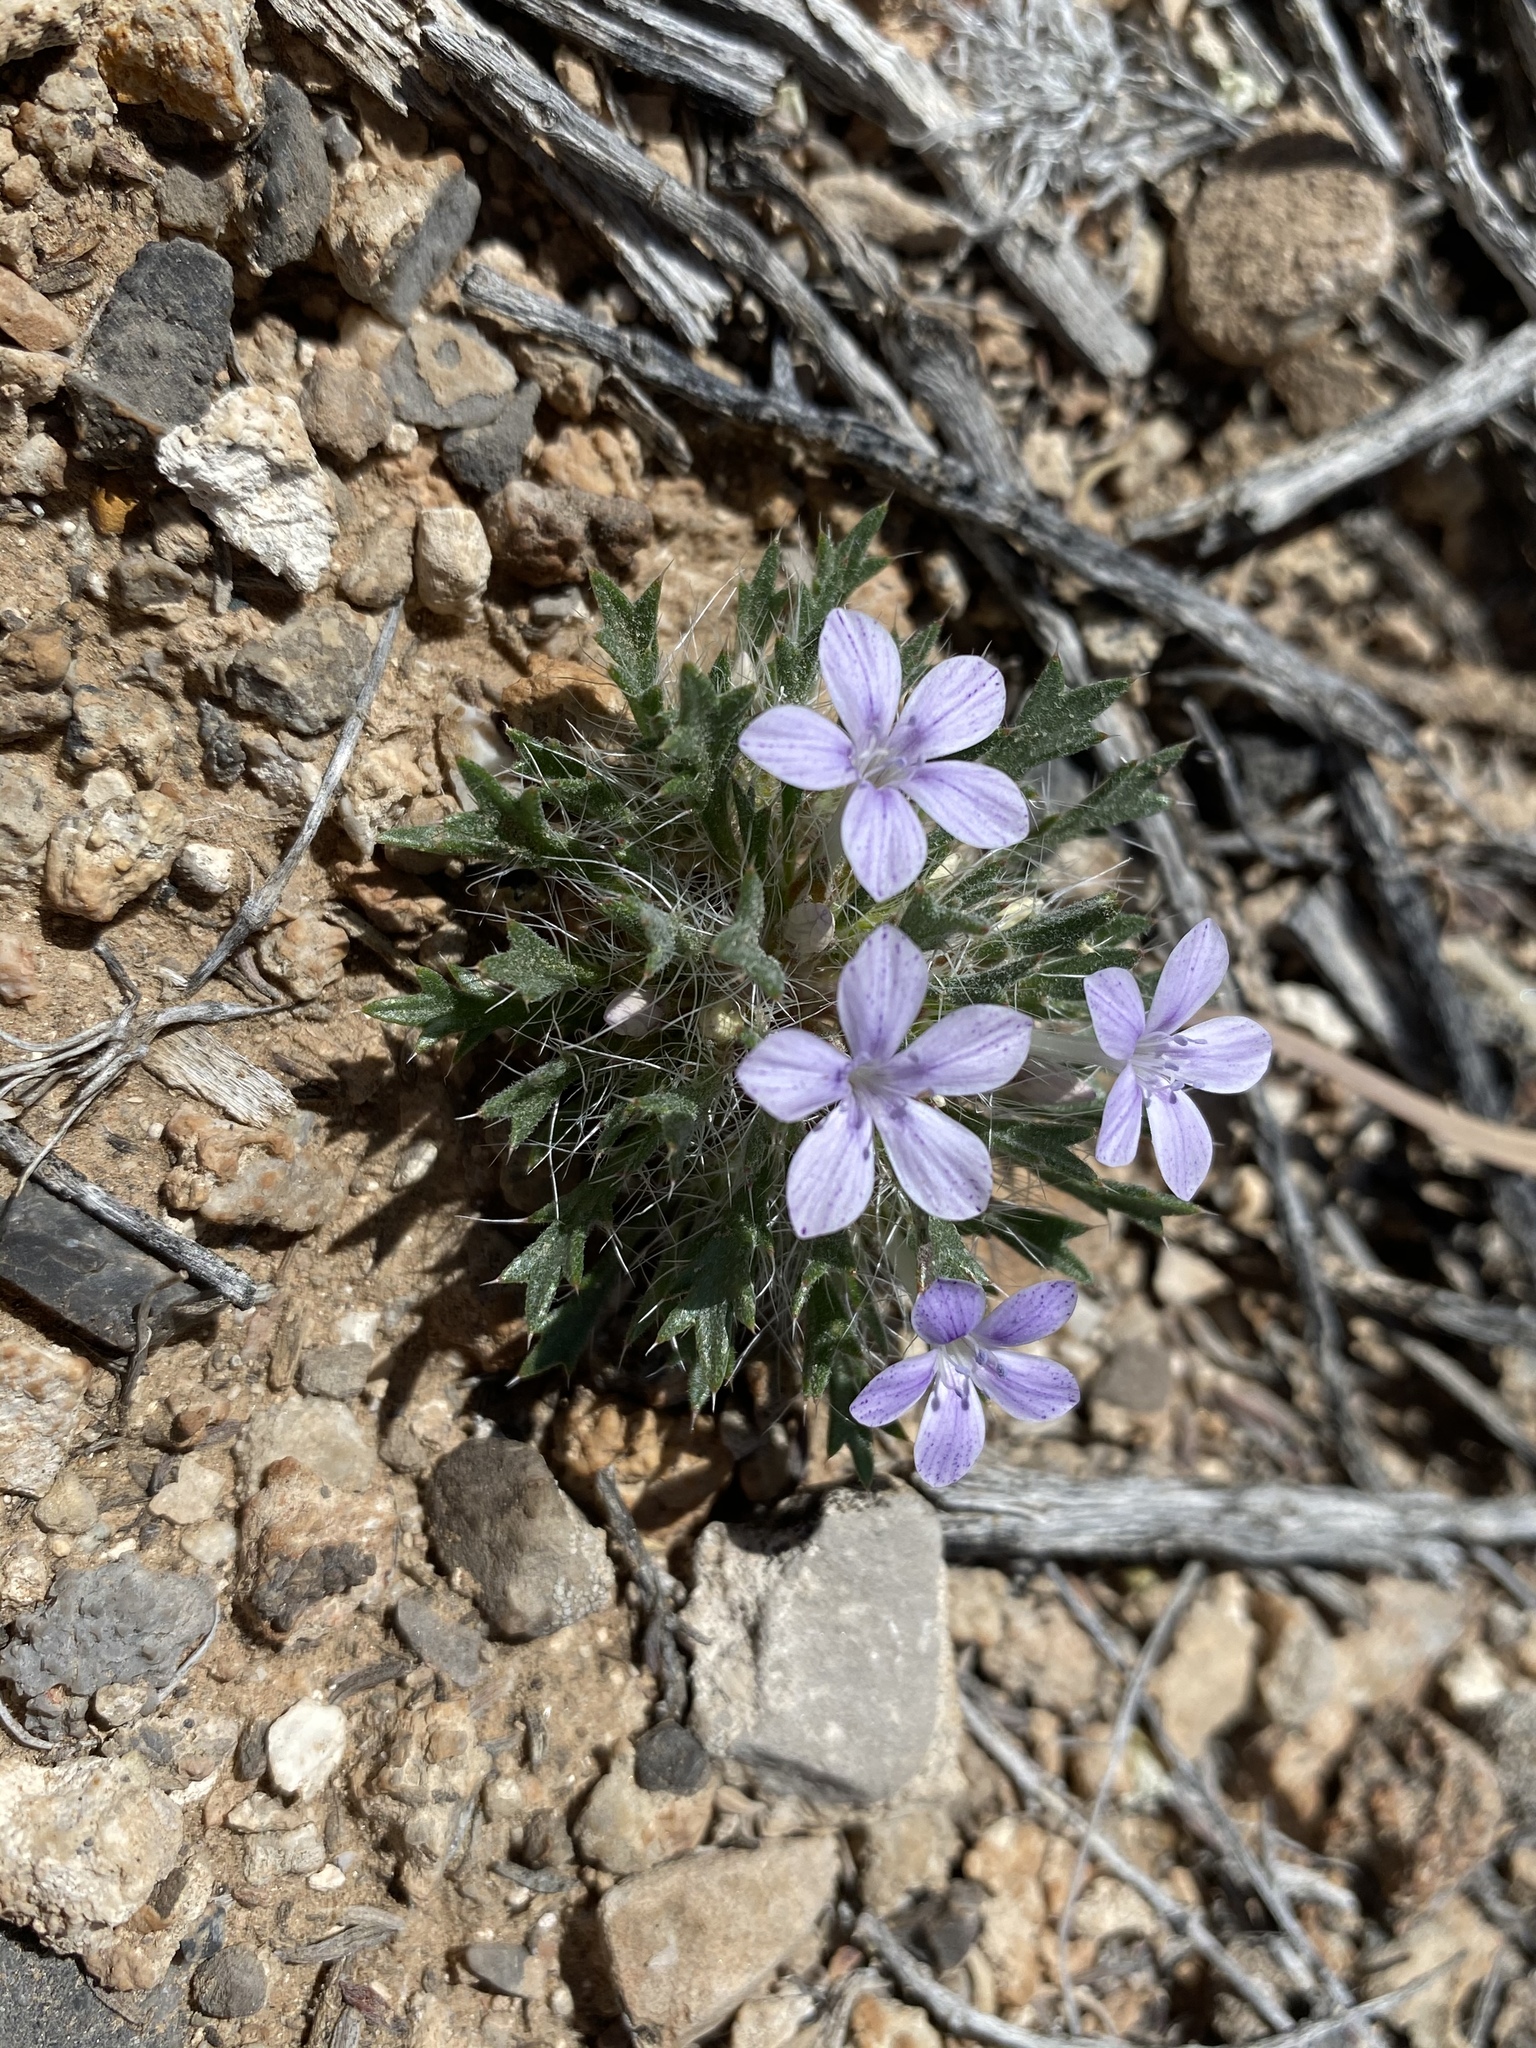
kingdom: Plantae
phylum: Tracheophyta
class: Magnoliopsida
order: Ericales
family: Polemoniaceae
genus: Langloisia
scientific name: Langloisia setosissima
